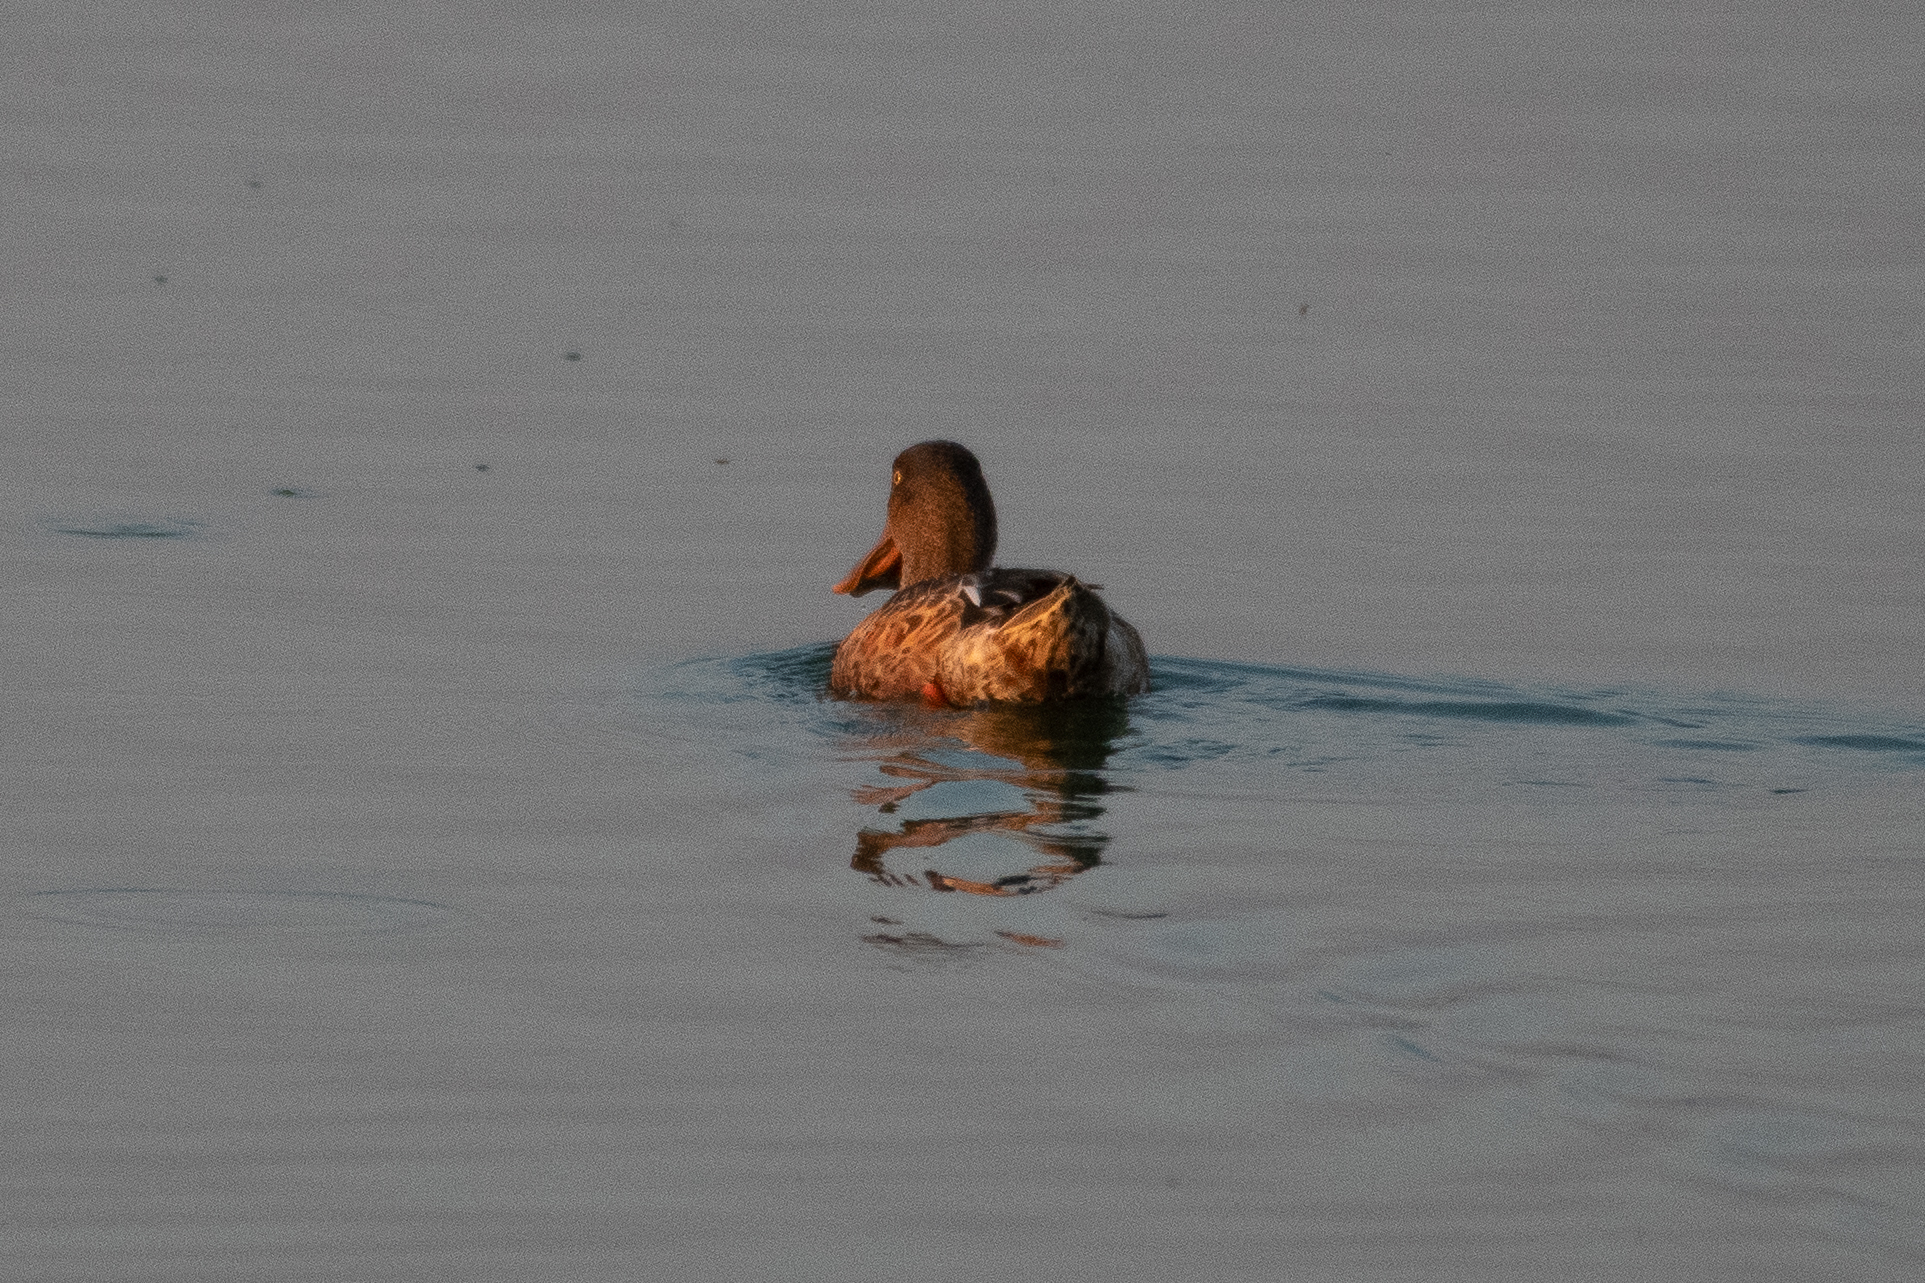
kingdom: Animalia
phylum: Chordata
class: Aves
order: Anseriformes
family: Anatidae
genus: Spatula
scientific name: Spatula clypeata
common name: Northern shoveler
